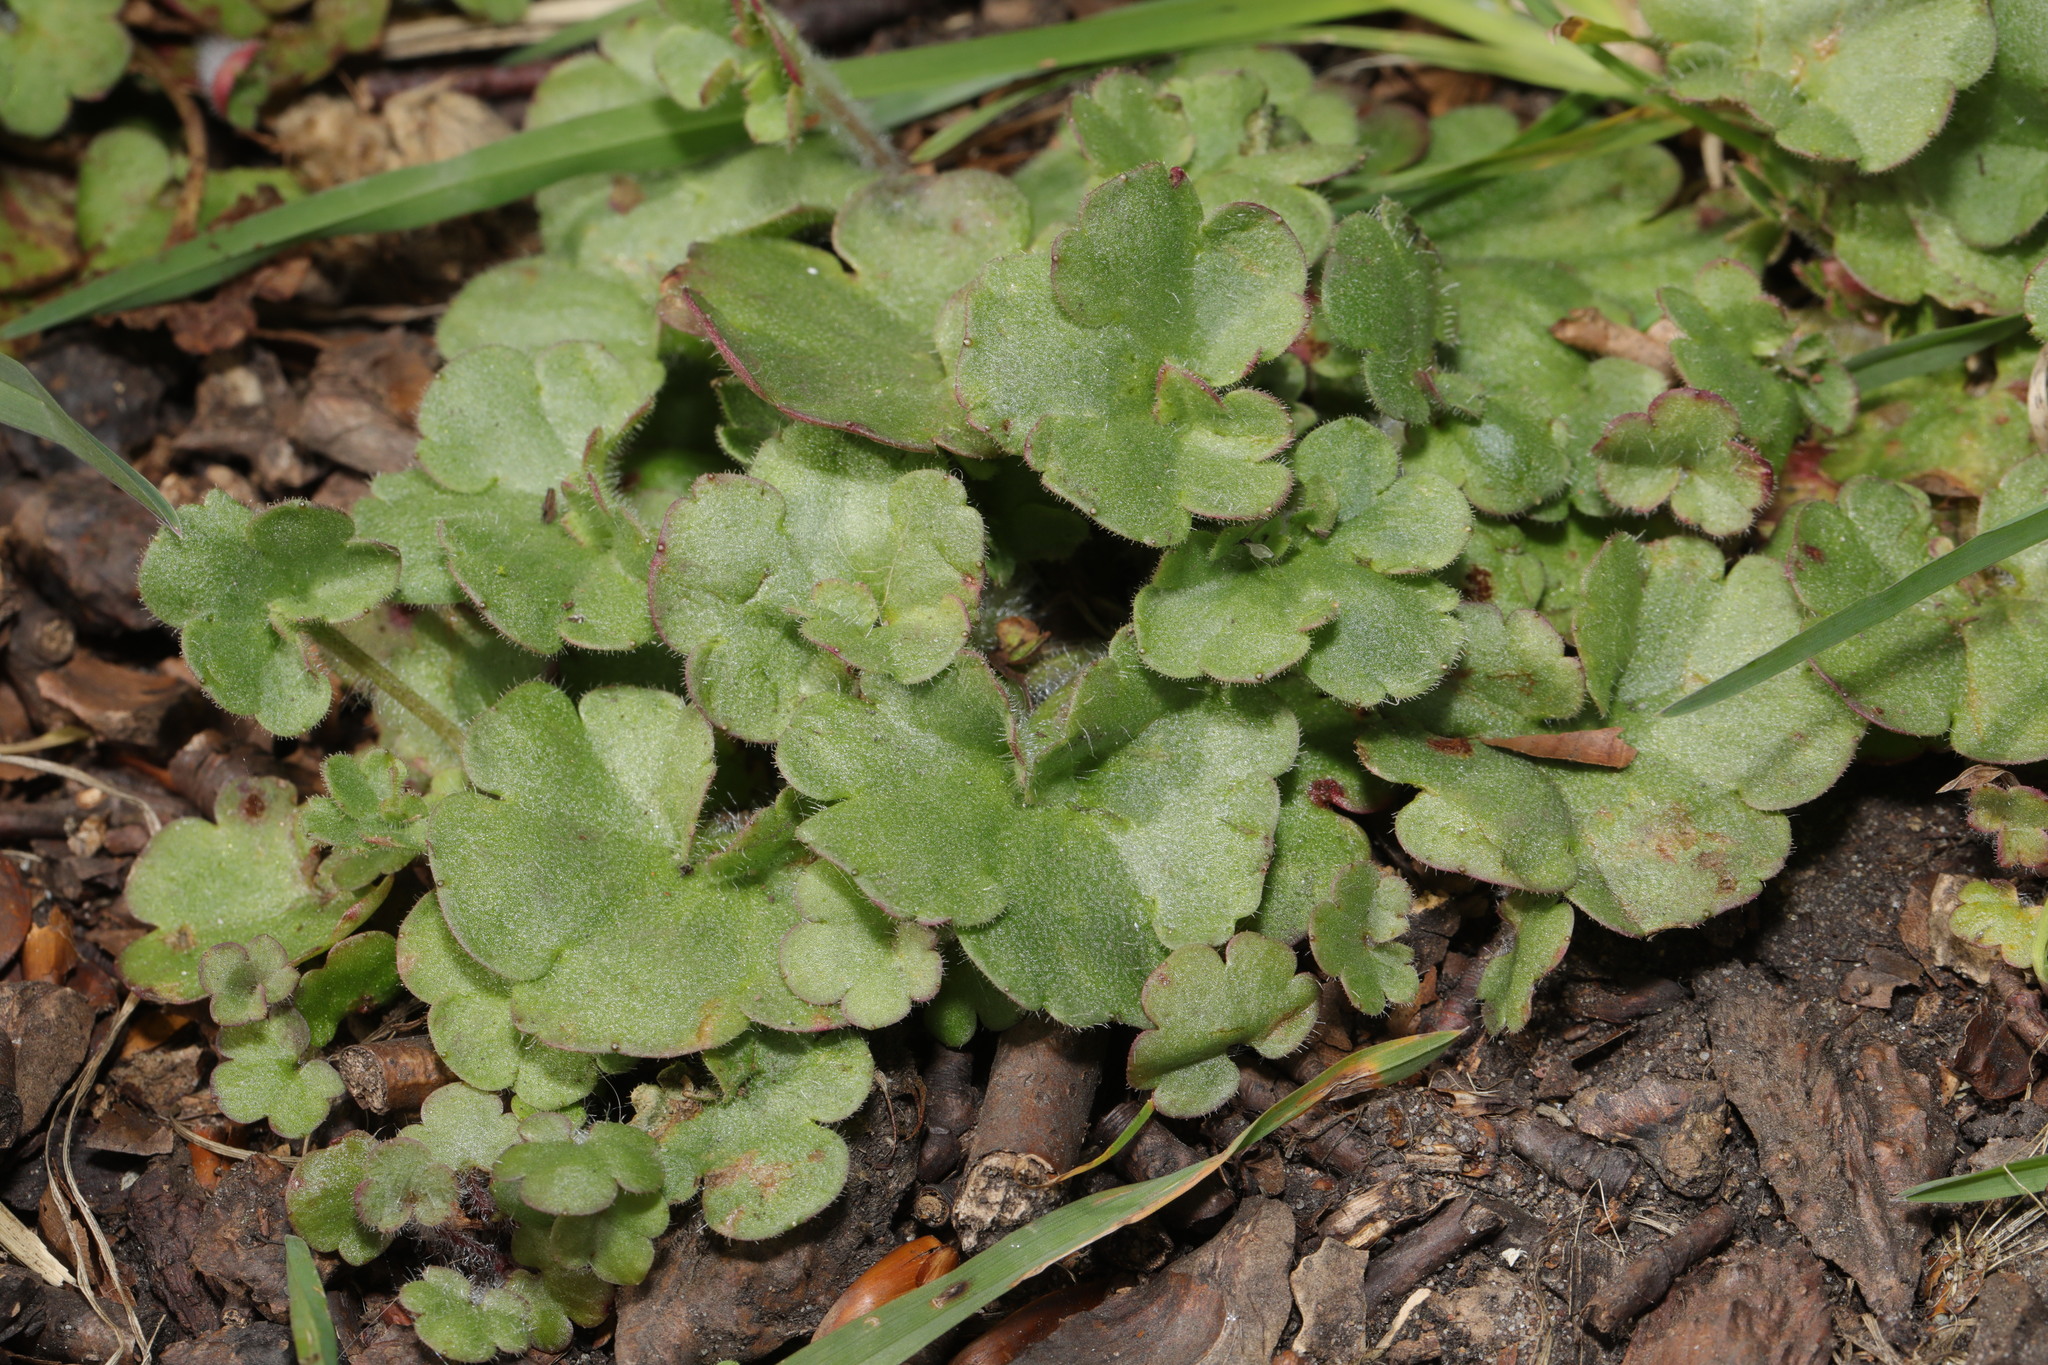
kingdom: Plantae
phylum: Tracheophyta
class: Magnoliopsida
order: Saxifragales
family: Saxifragaceae
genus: Saxifraga
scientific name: Saxifraga granulata
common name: Meadow saxifrage
